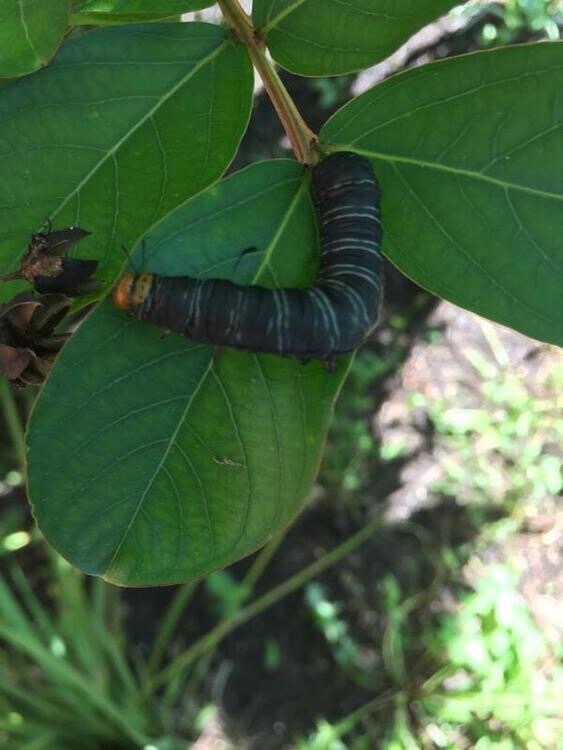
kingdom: Animalia
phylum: Arthropoda
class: Insecta
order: Lepidoptera
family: Noctuidae
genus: Xerociris
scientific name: Xerociris wilsonii
